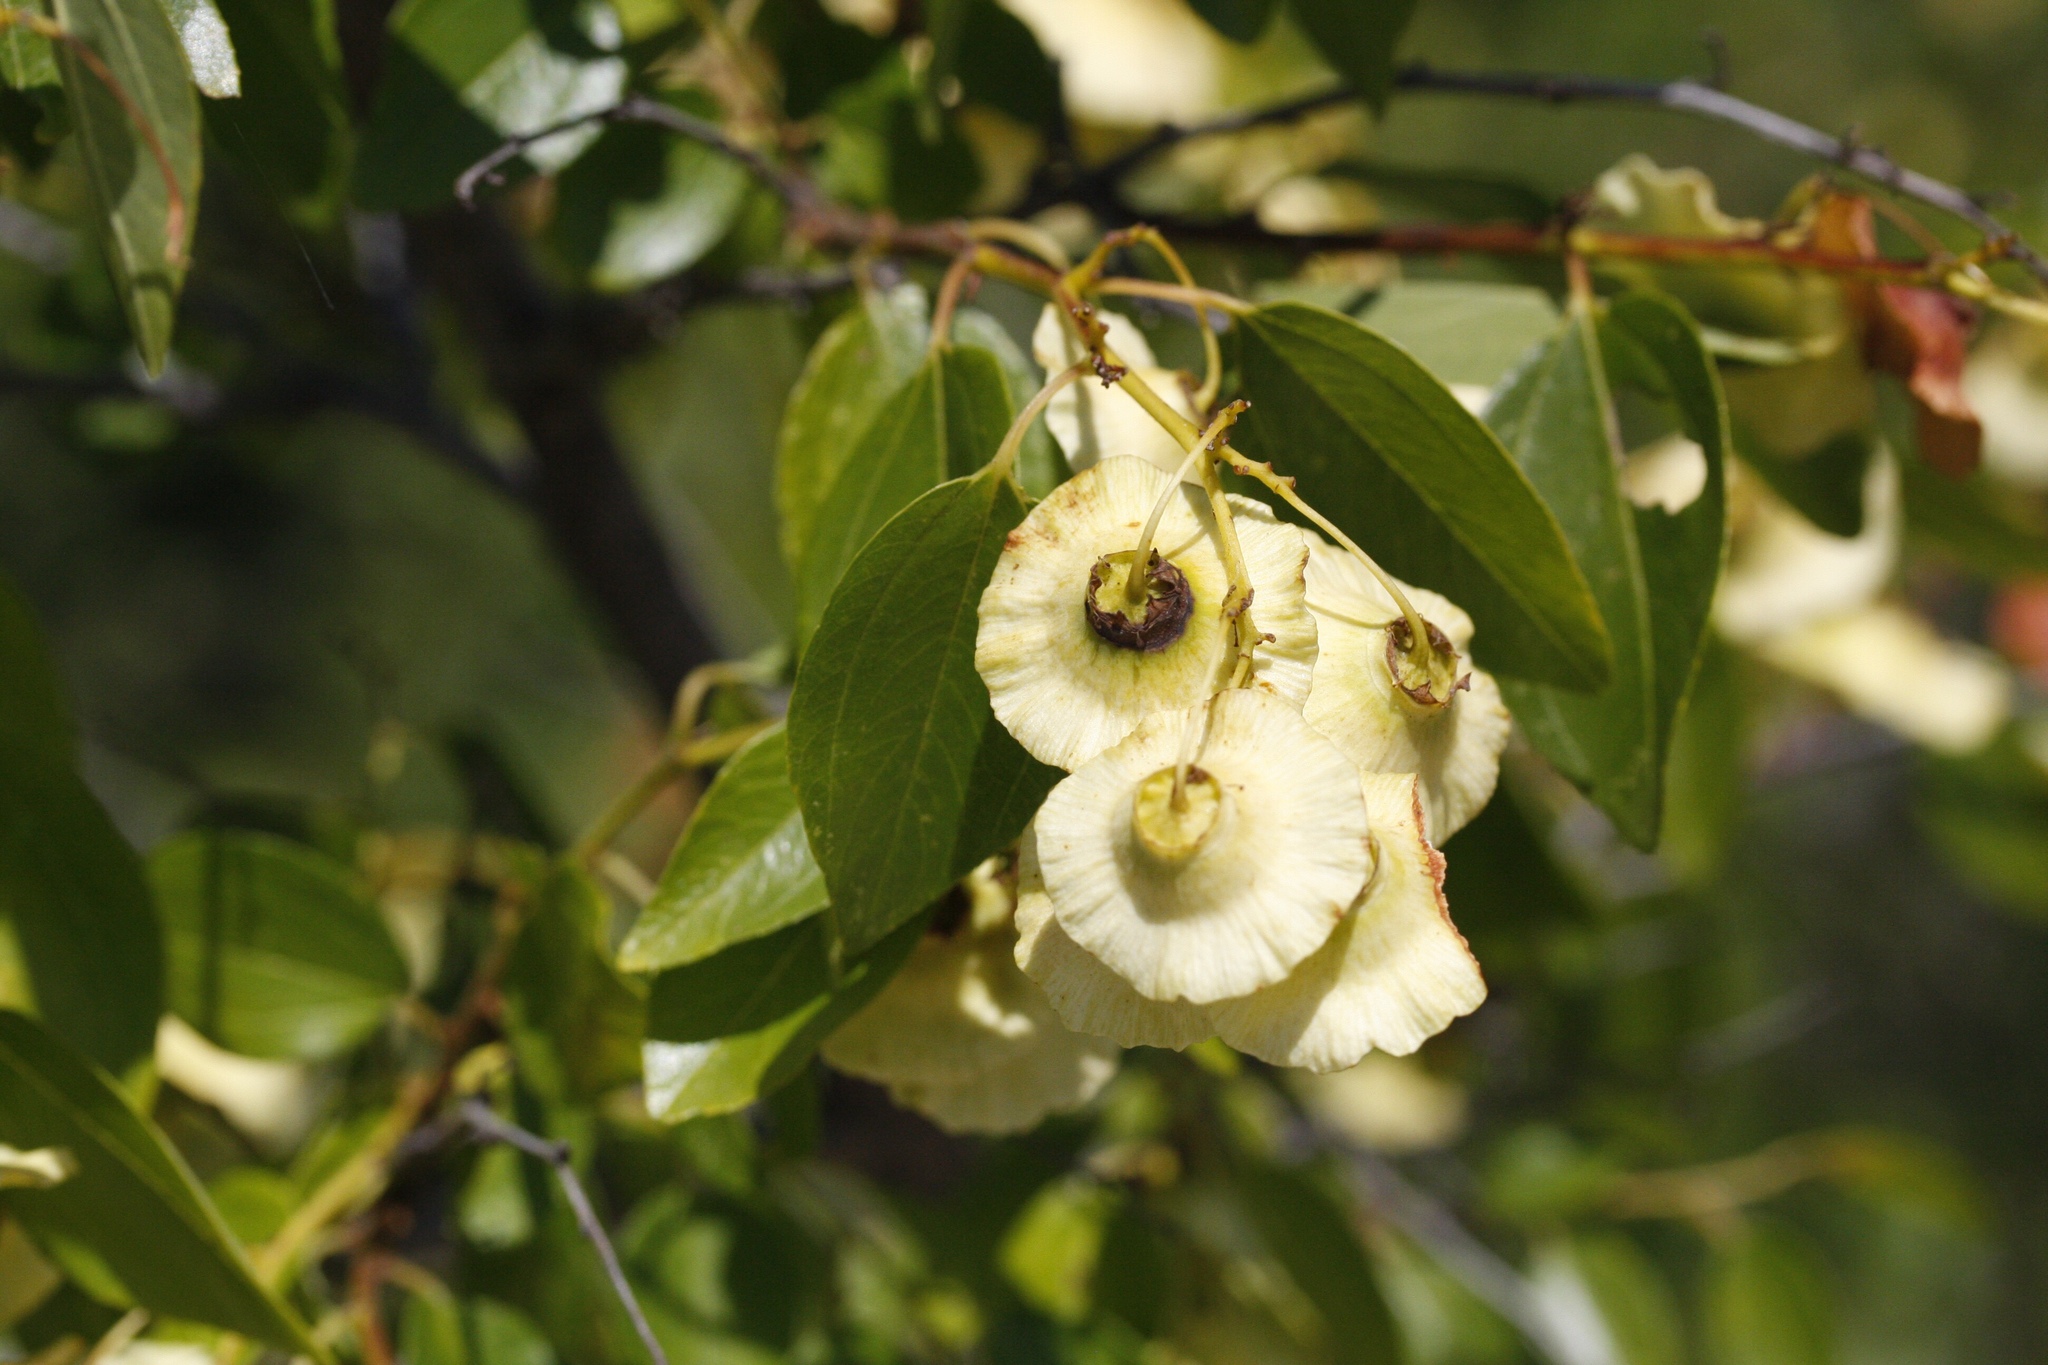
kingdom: Plantae
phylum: Tracheophyta
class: Magnoliopsida
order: Rosales
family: Rhamnaceae
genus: Paliurus
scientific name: Paliurus spina-christi
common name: Jeruselem thorn
